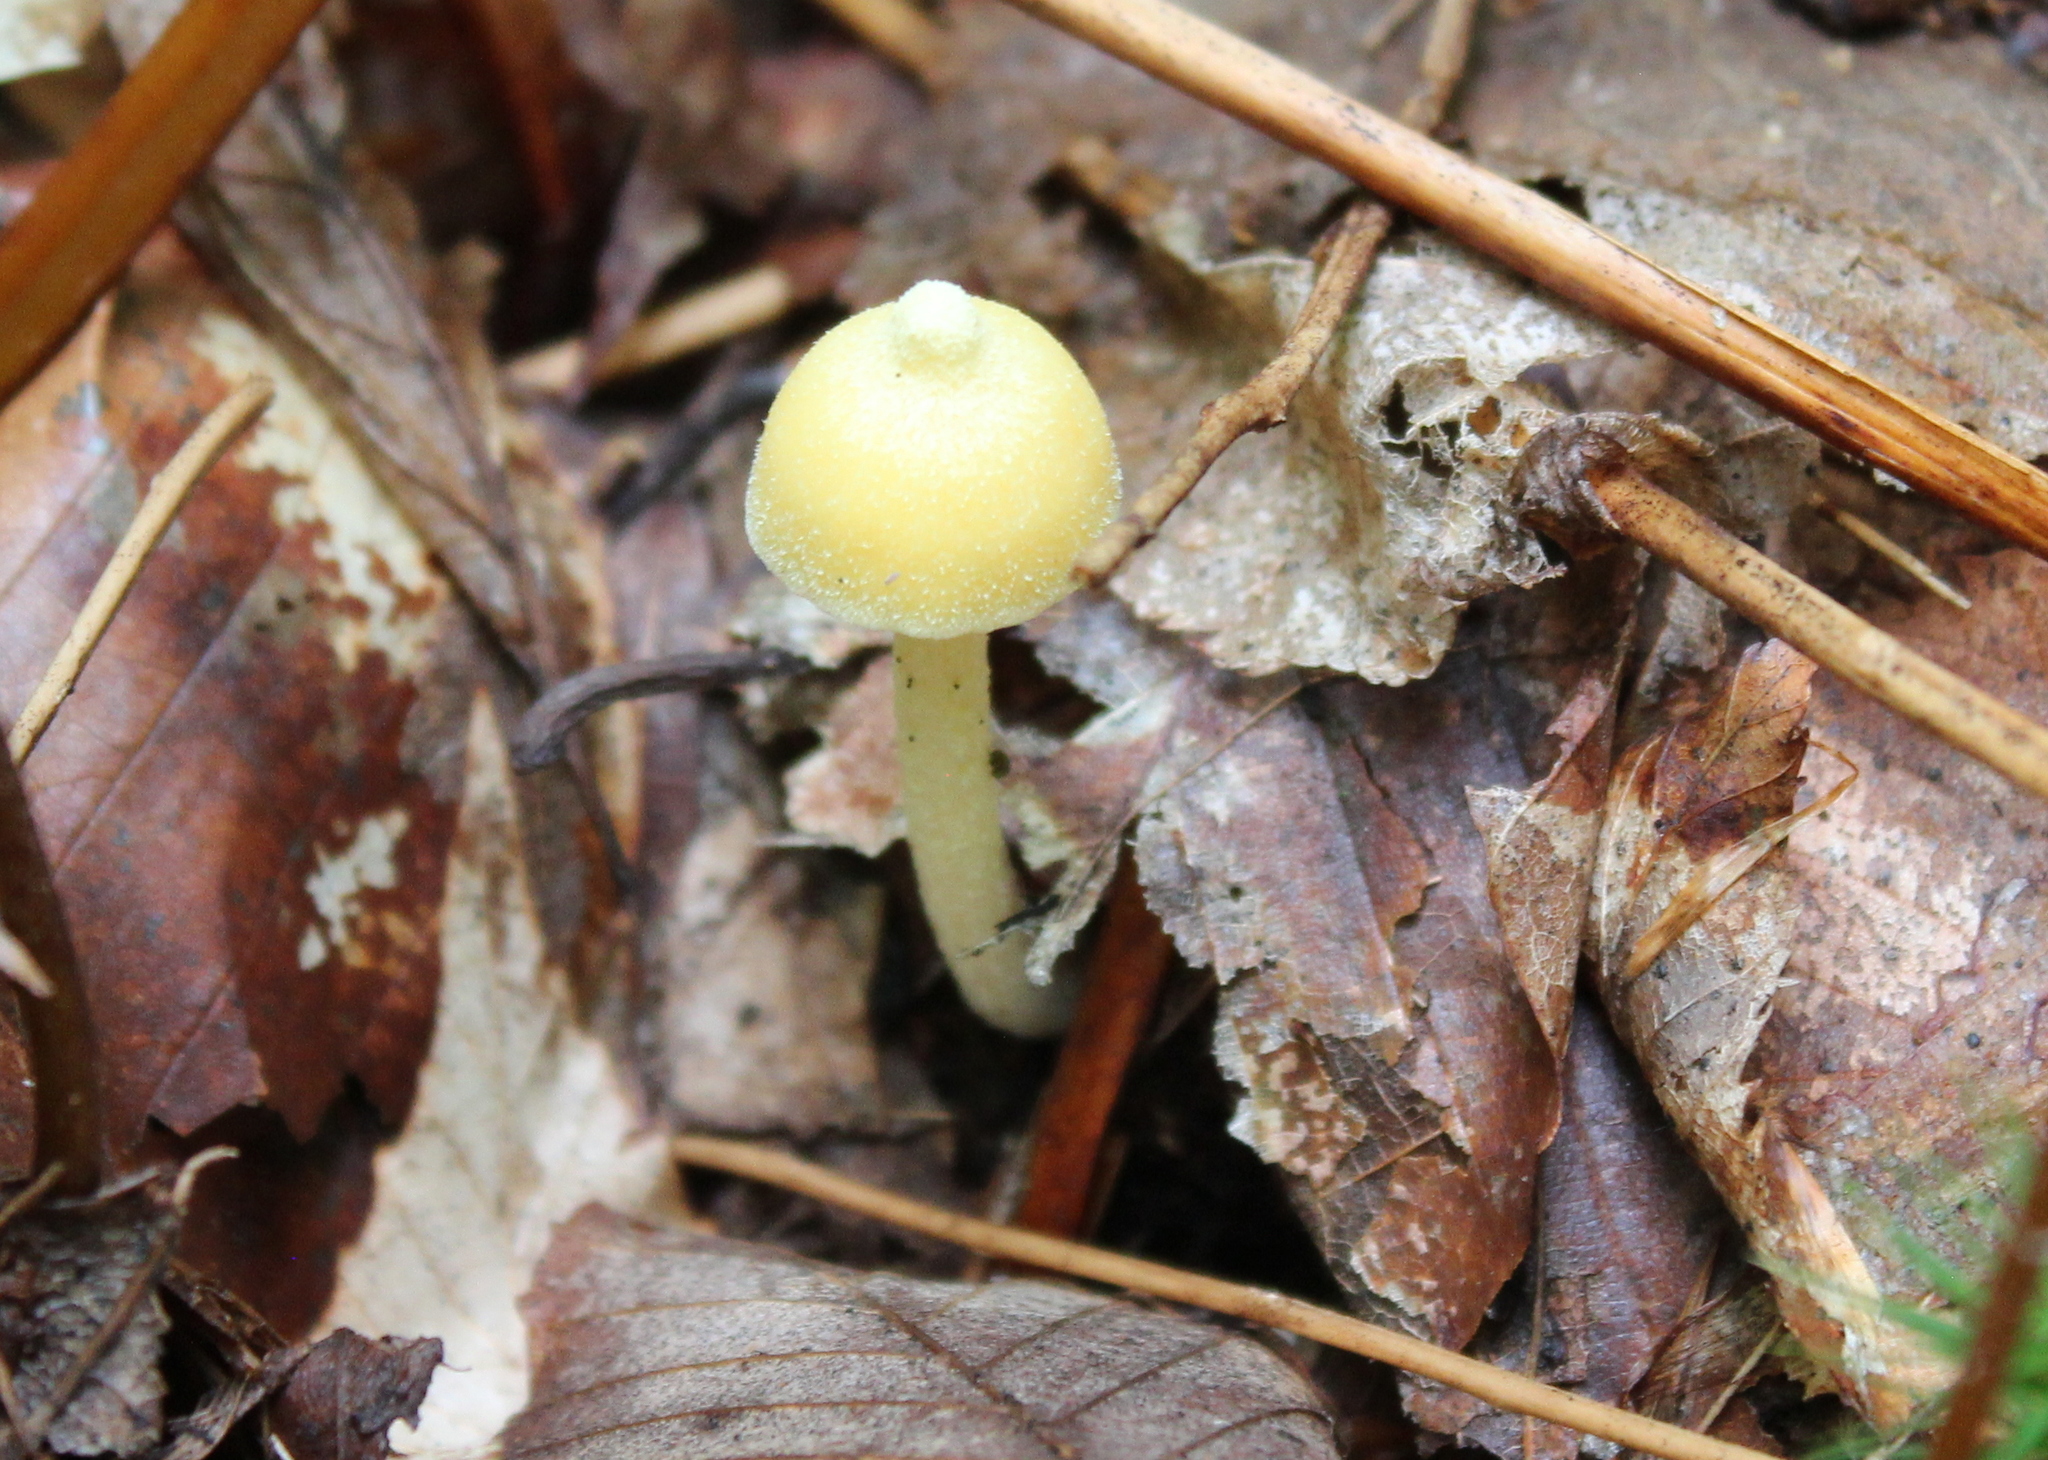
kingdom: Fungi
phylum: Basidiomycota
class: Agaricomycetes
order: Agaricales
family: Entolomataceae
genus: Entoloma
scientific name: Entoloma murrayi
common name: Yellow unicorn entoloma
